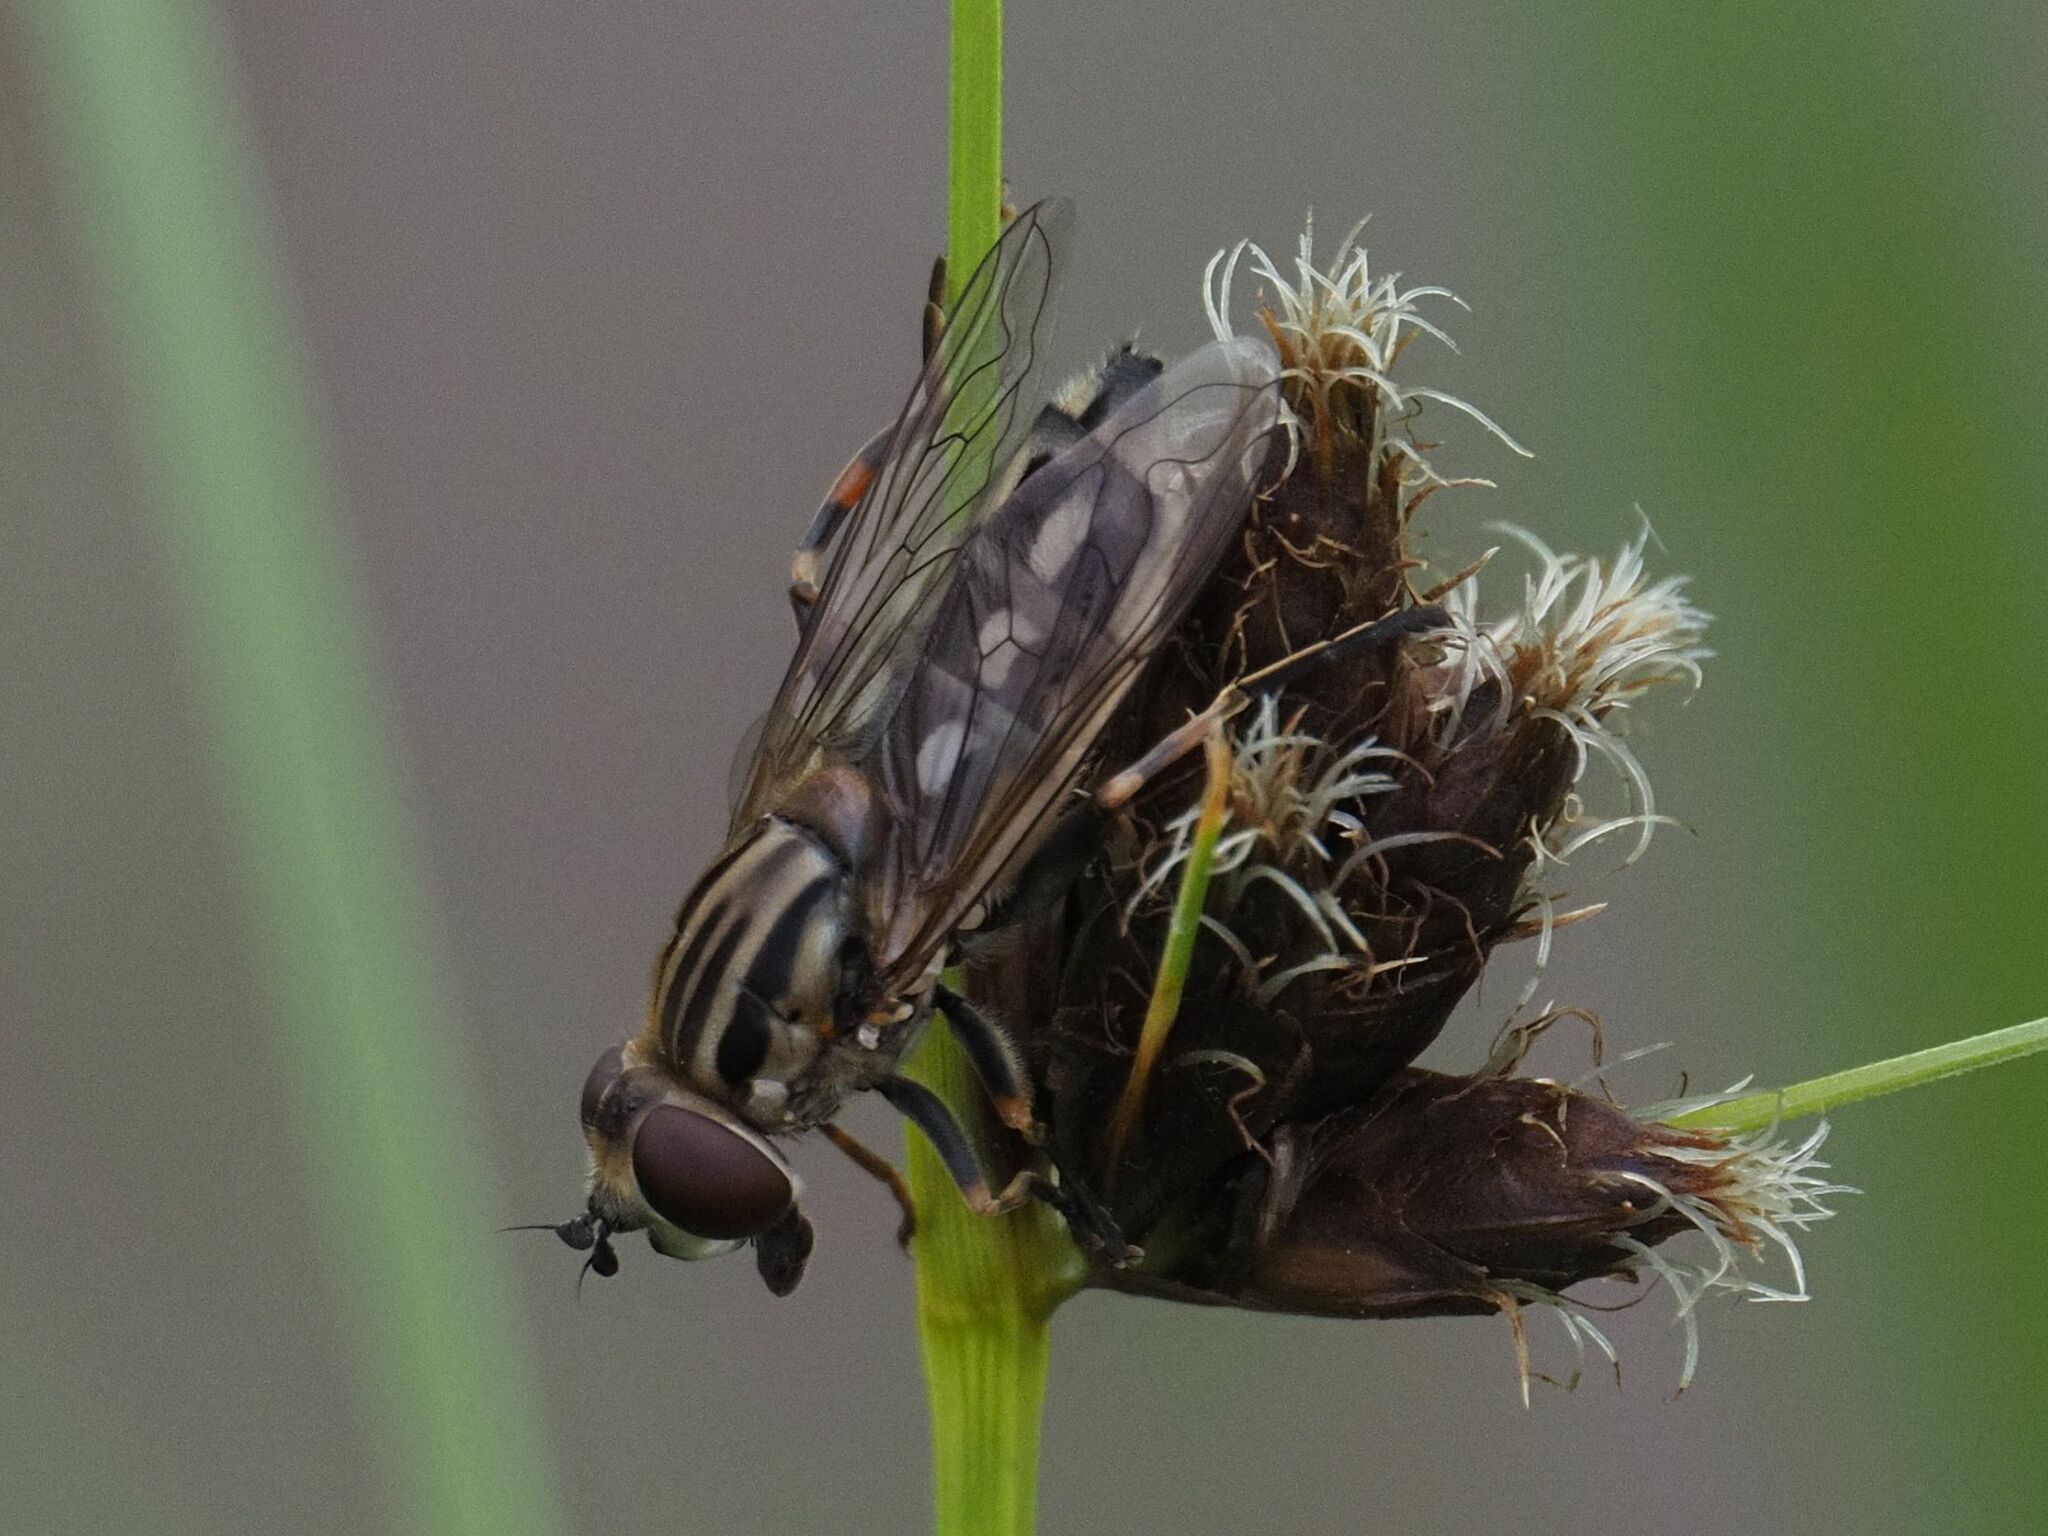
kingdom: Animalia
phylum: Arthropoda
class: Insecta
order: Diptera
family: Syrphidae
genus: Lejops
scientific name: Lejops vittatus
